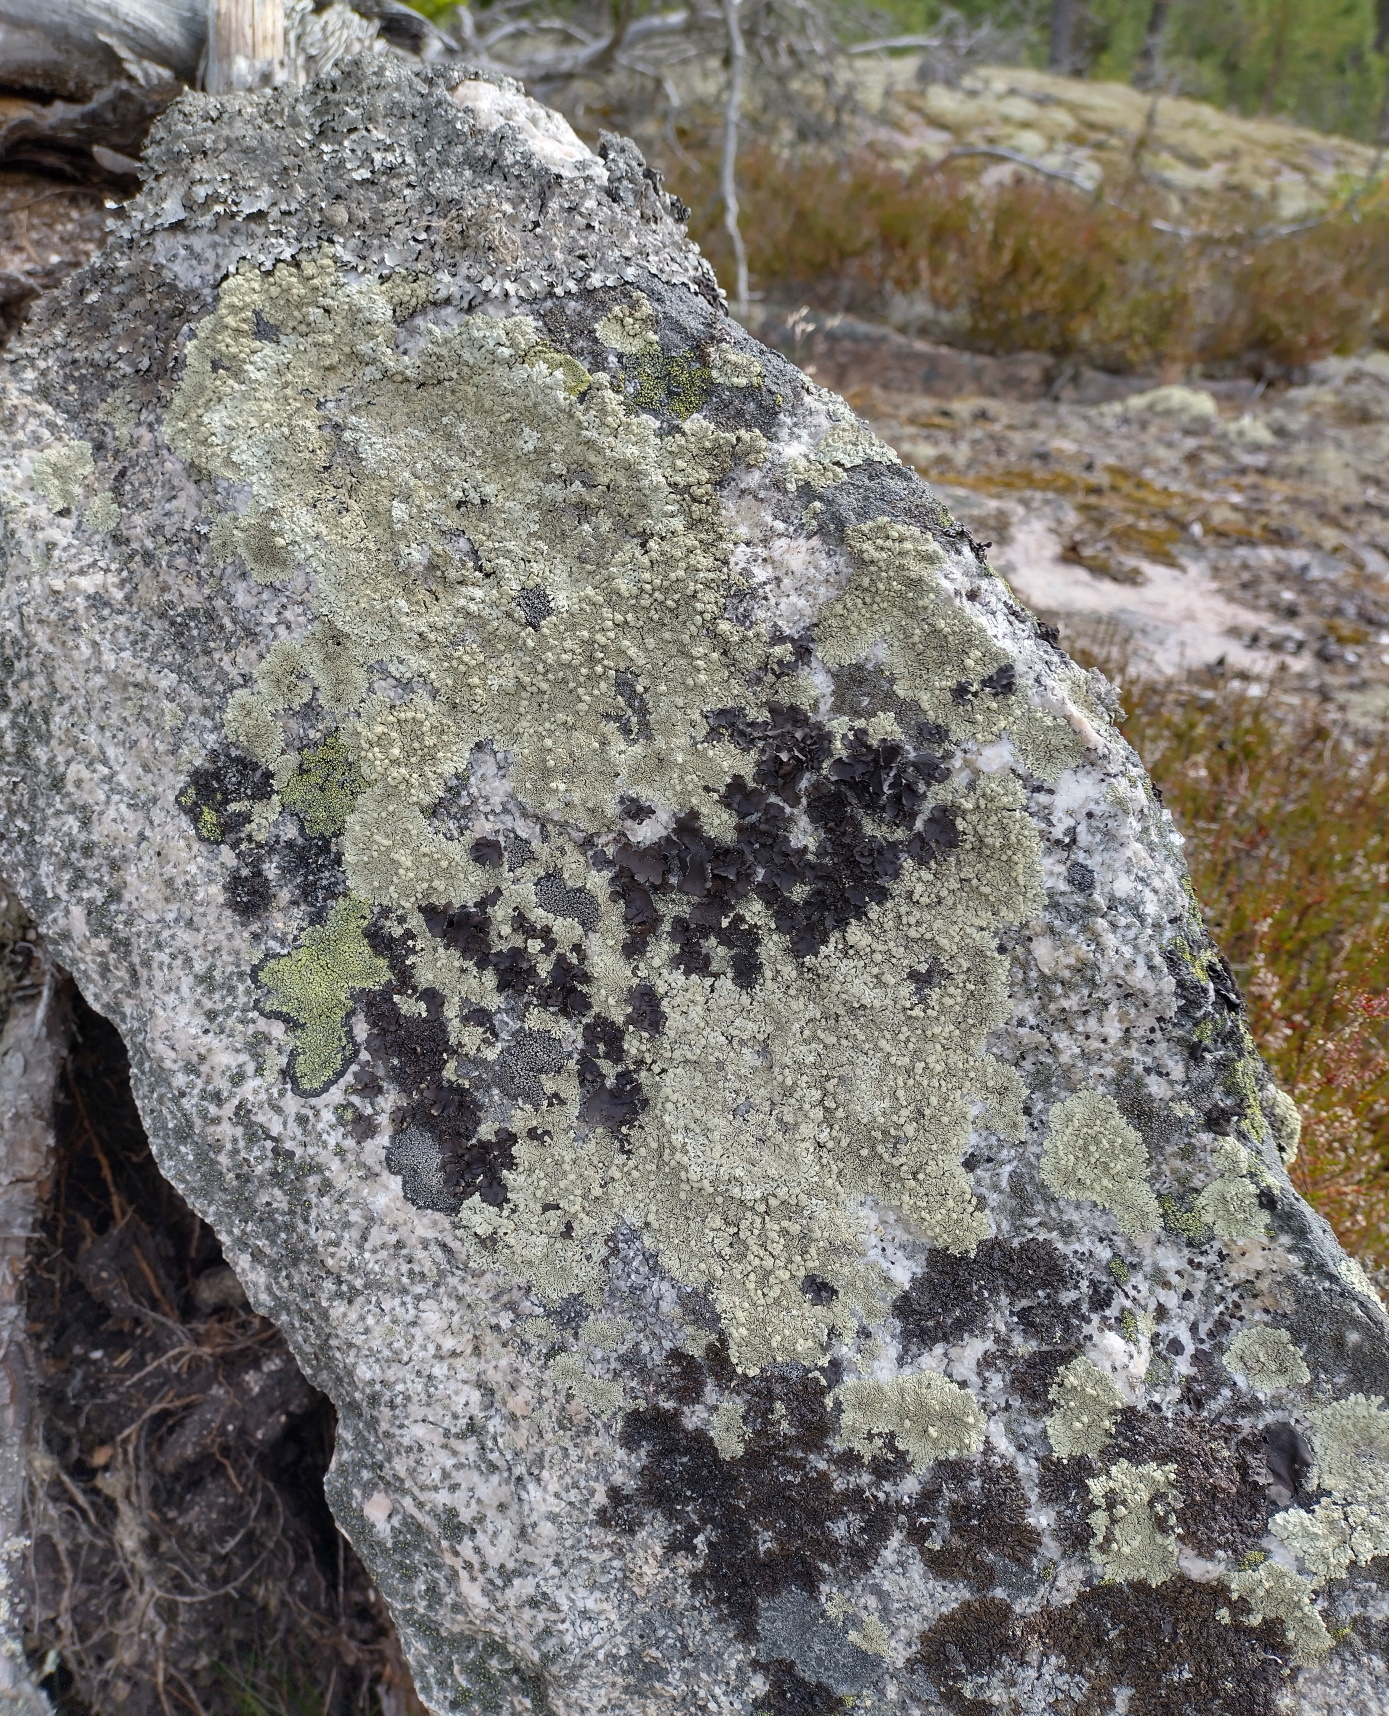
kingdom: Fungi
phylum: Ascomycota
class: Lecanoromycetes
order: Lecanorales
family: Parmeliaceae
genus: Arctoparmelia
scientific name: Arctoparmelia incurva
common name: Bent ring lichen
